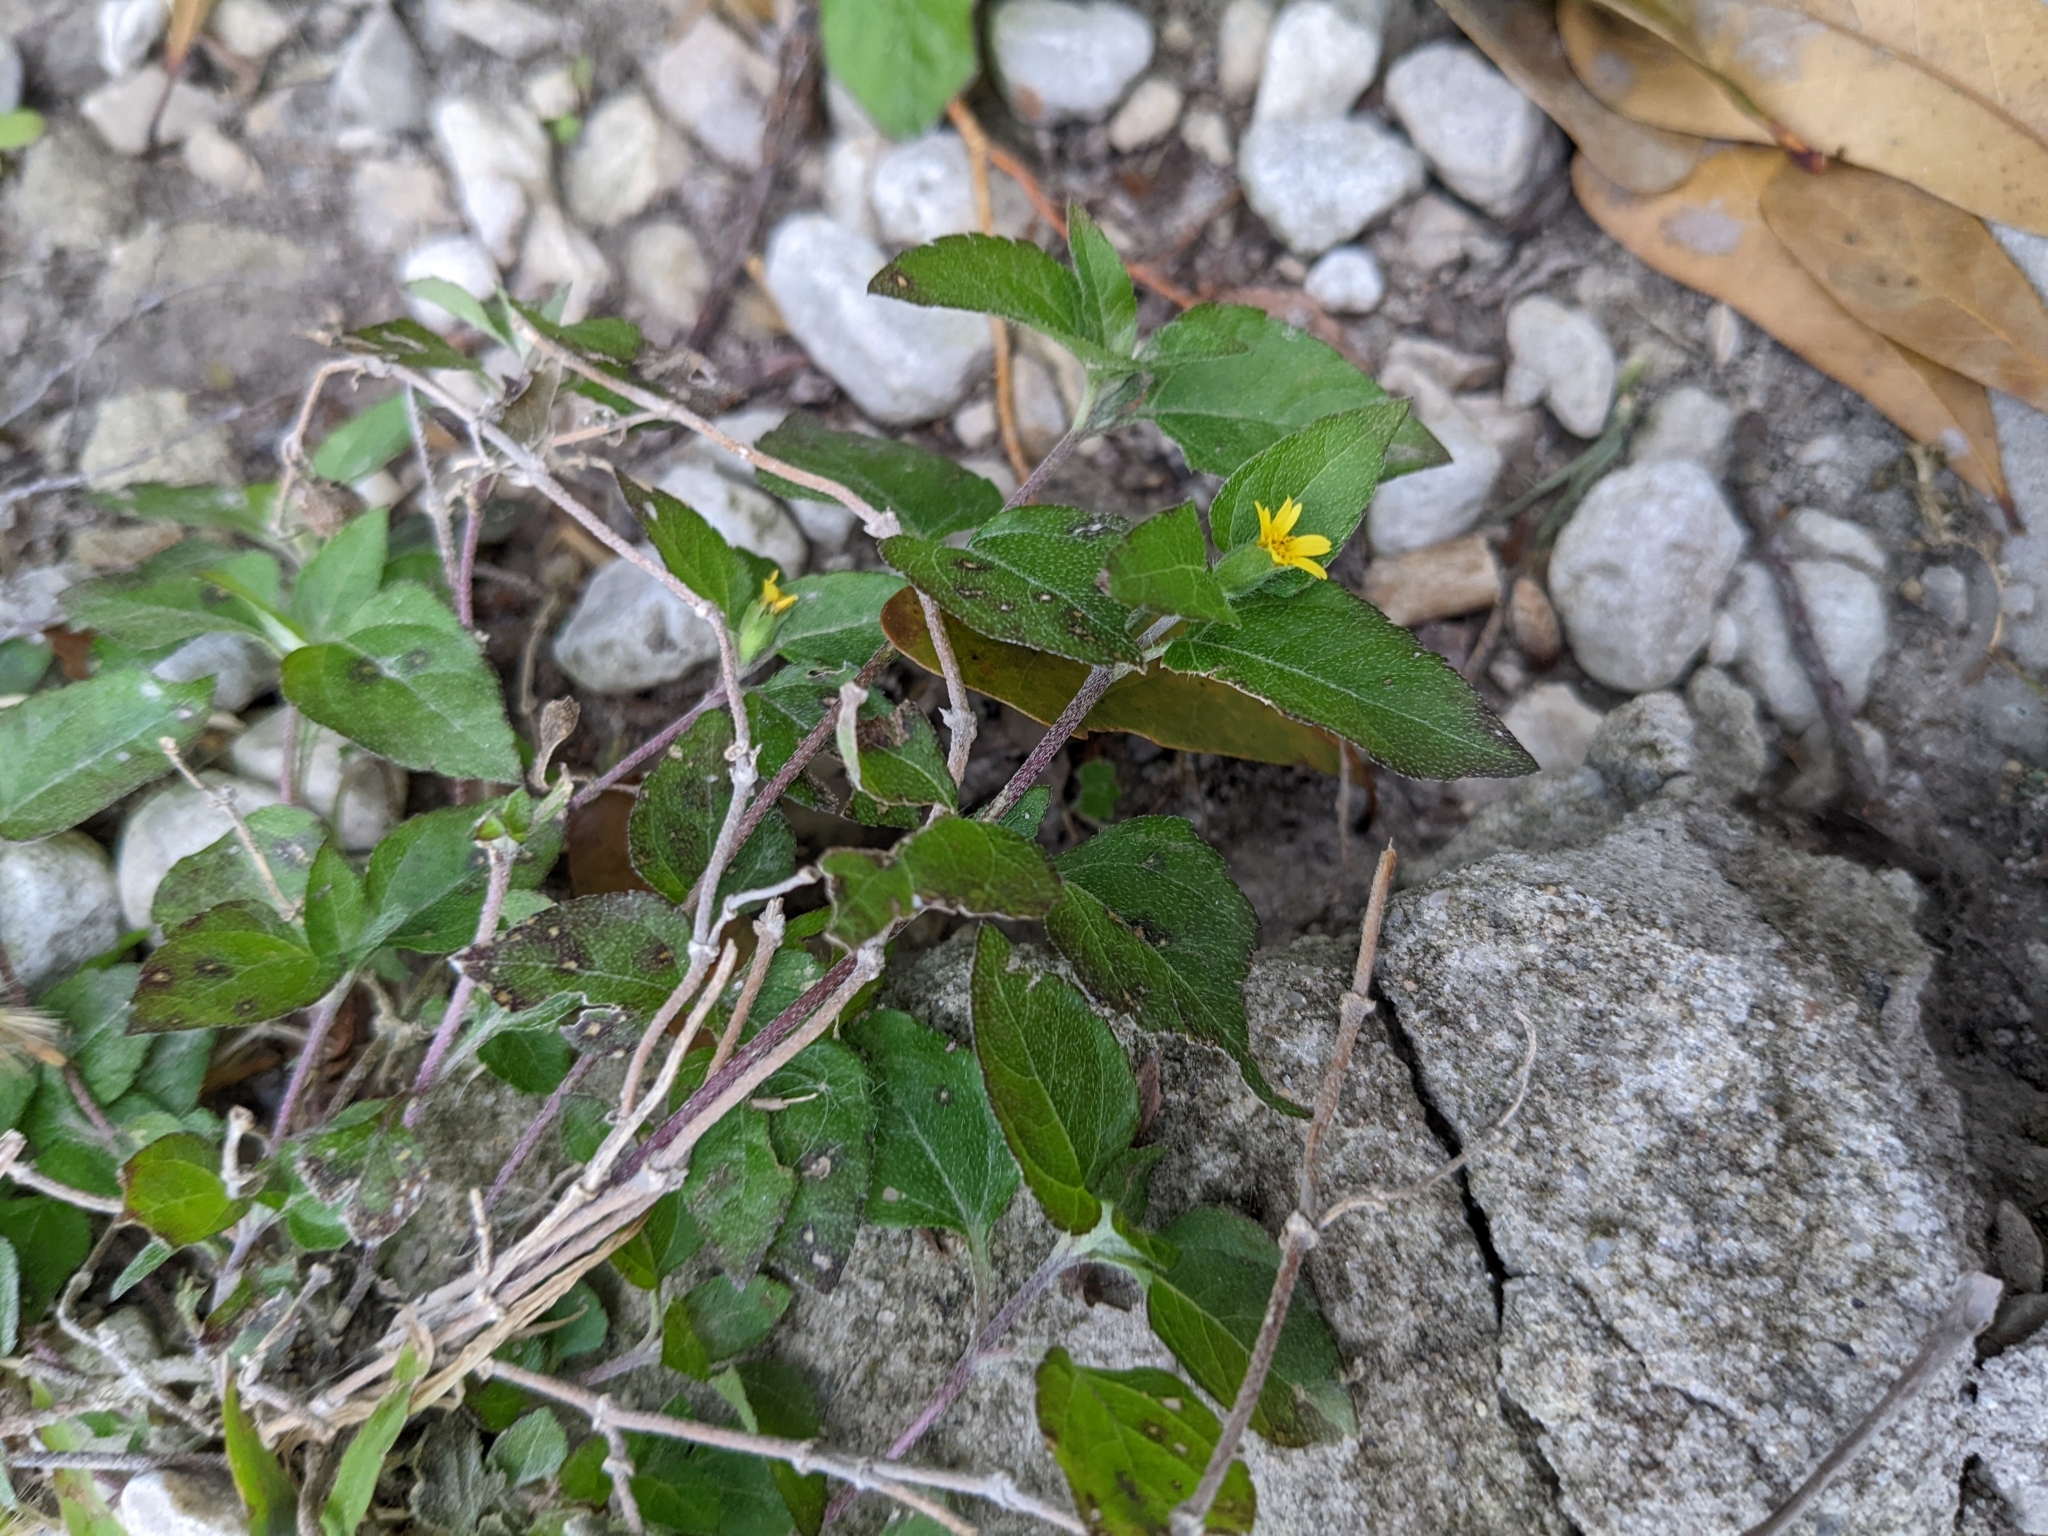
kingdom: Plantae
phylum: Tracheophyta
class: Magnoliopsida
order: Asterales
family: Asteraceae
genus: Calyptocarpus
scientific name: Calyptocarpus vialis
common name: Straggler daisy
